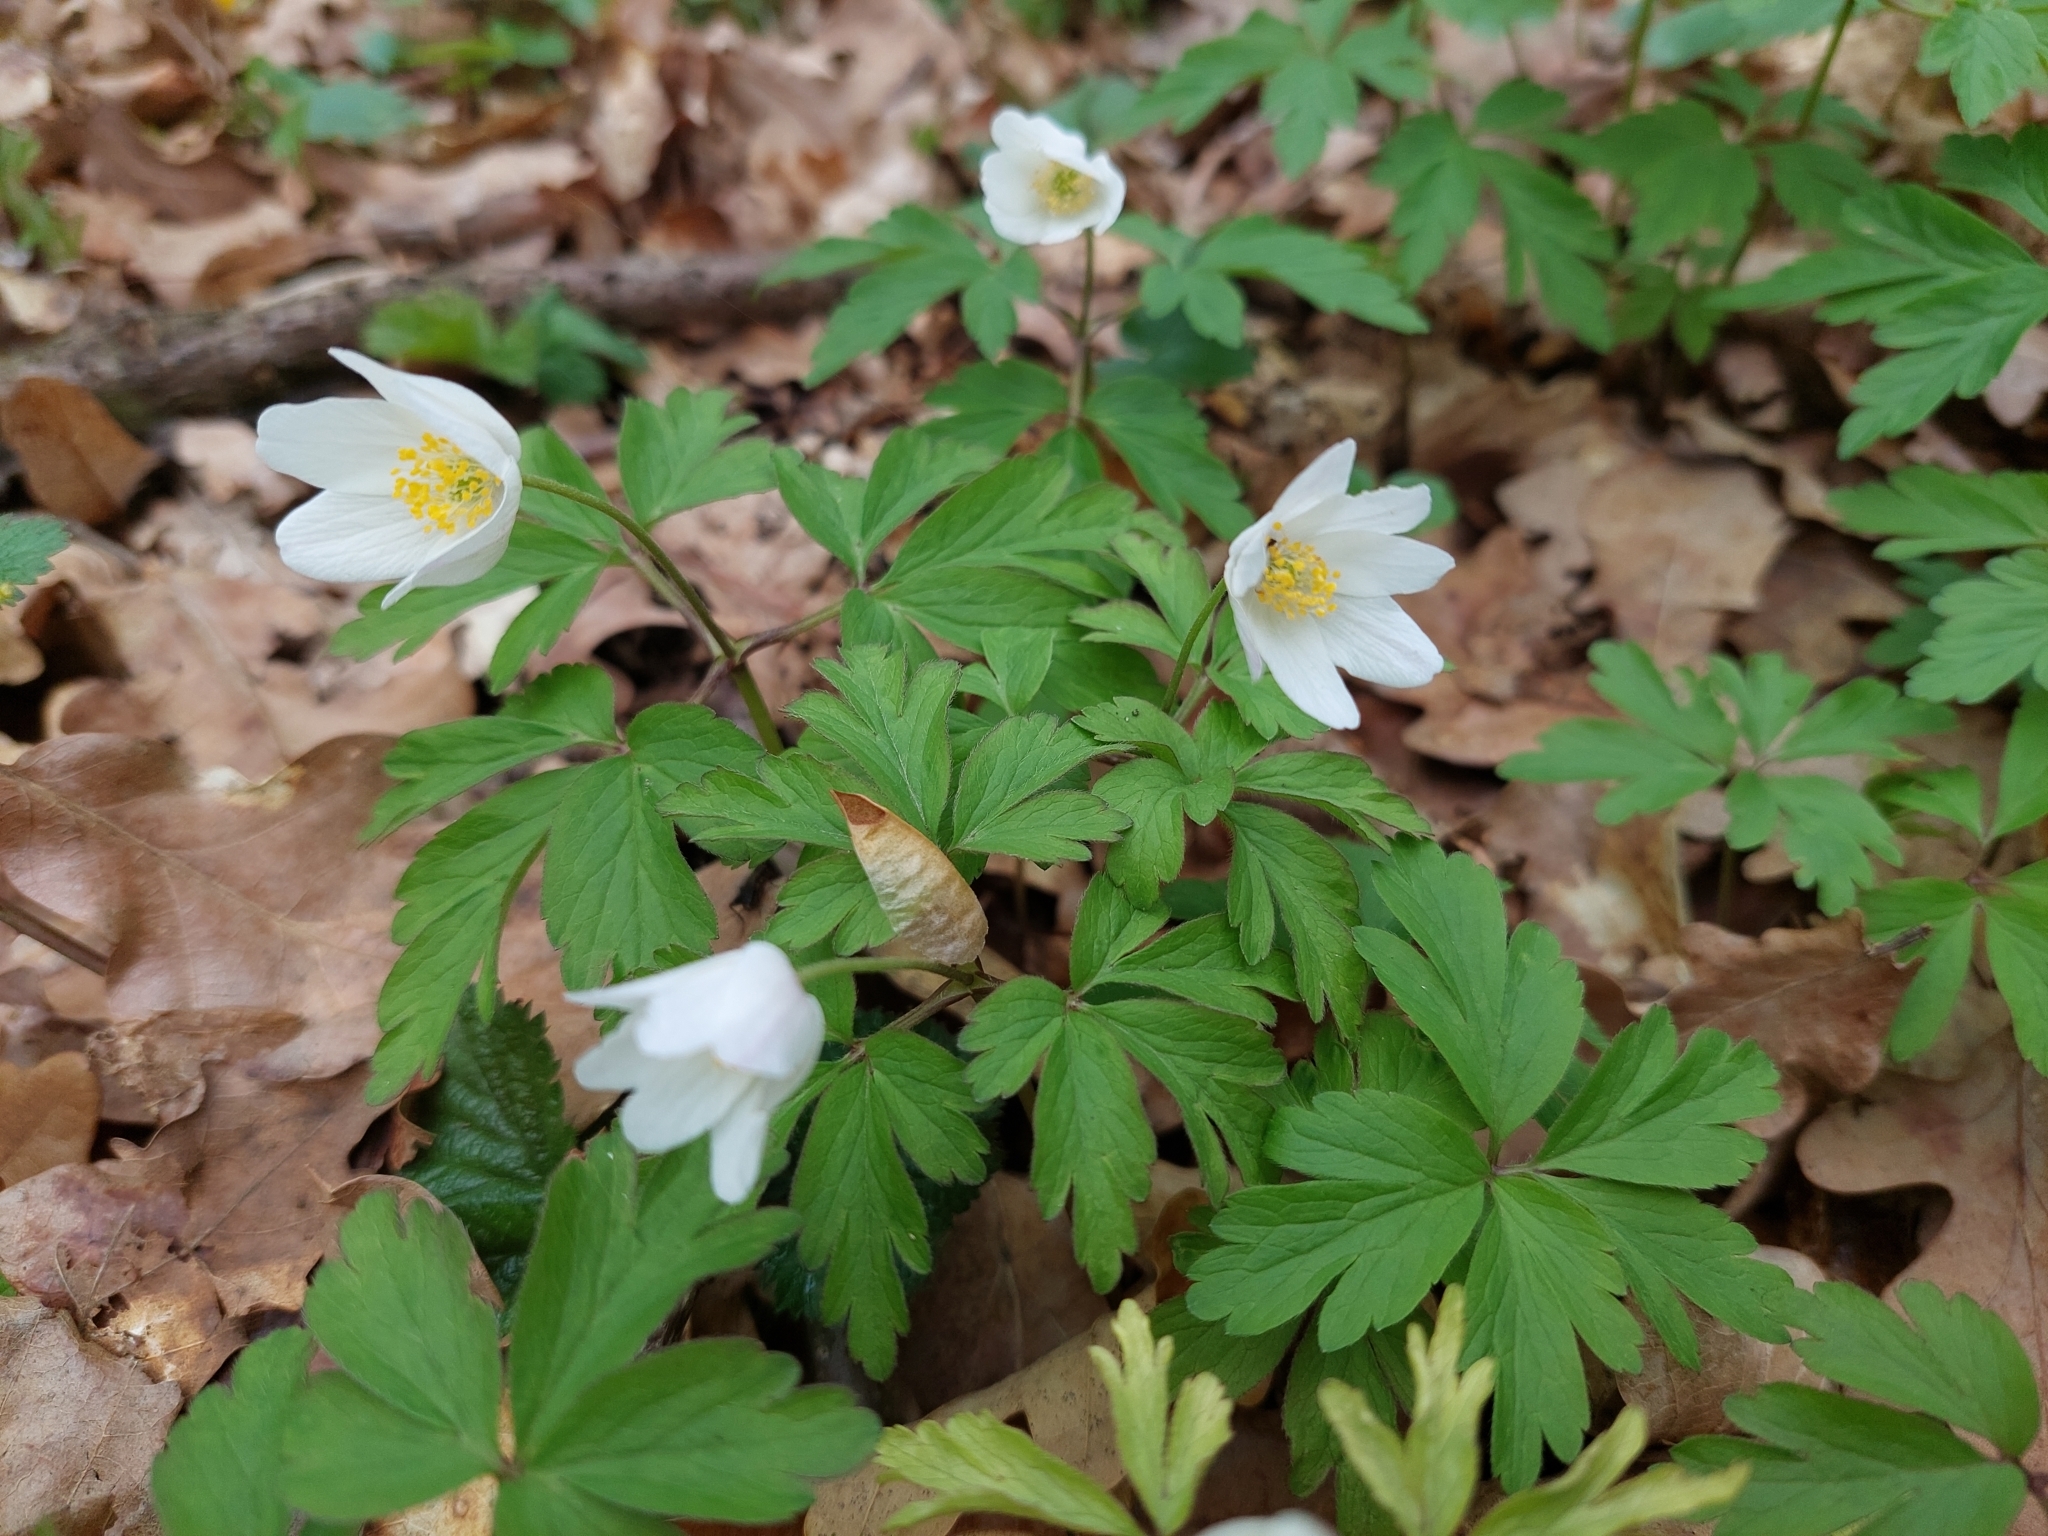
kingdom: Plantae
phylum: Tracheophyta
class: Magnoliopsida
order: Ranunculales
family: Ranunculaceae
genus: Anemone
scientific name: Anemone nemorosa
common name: Wood anemone
